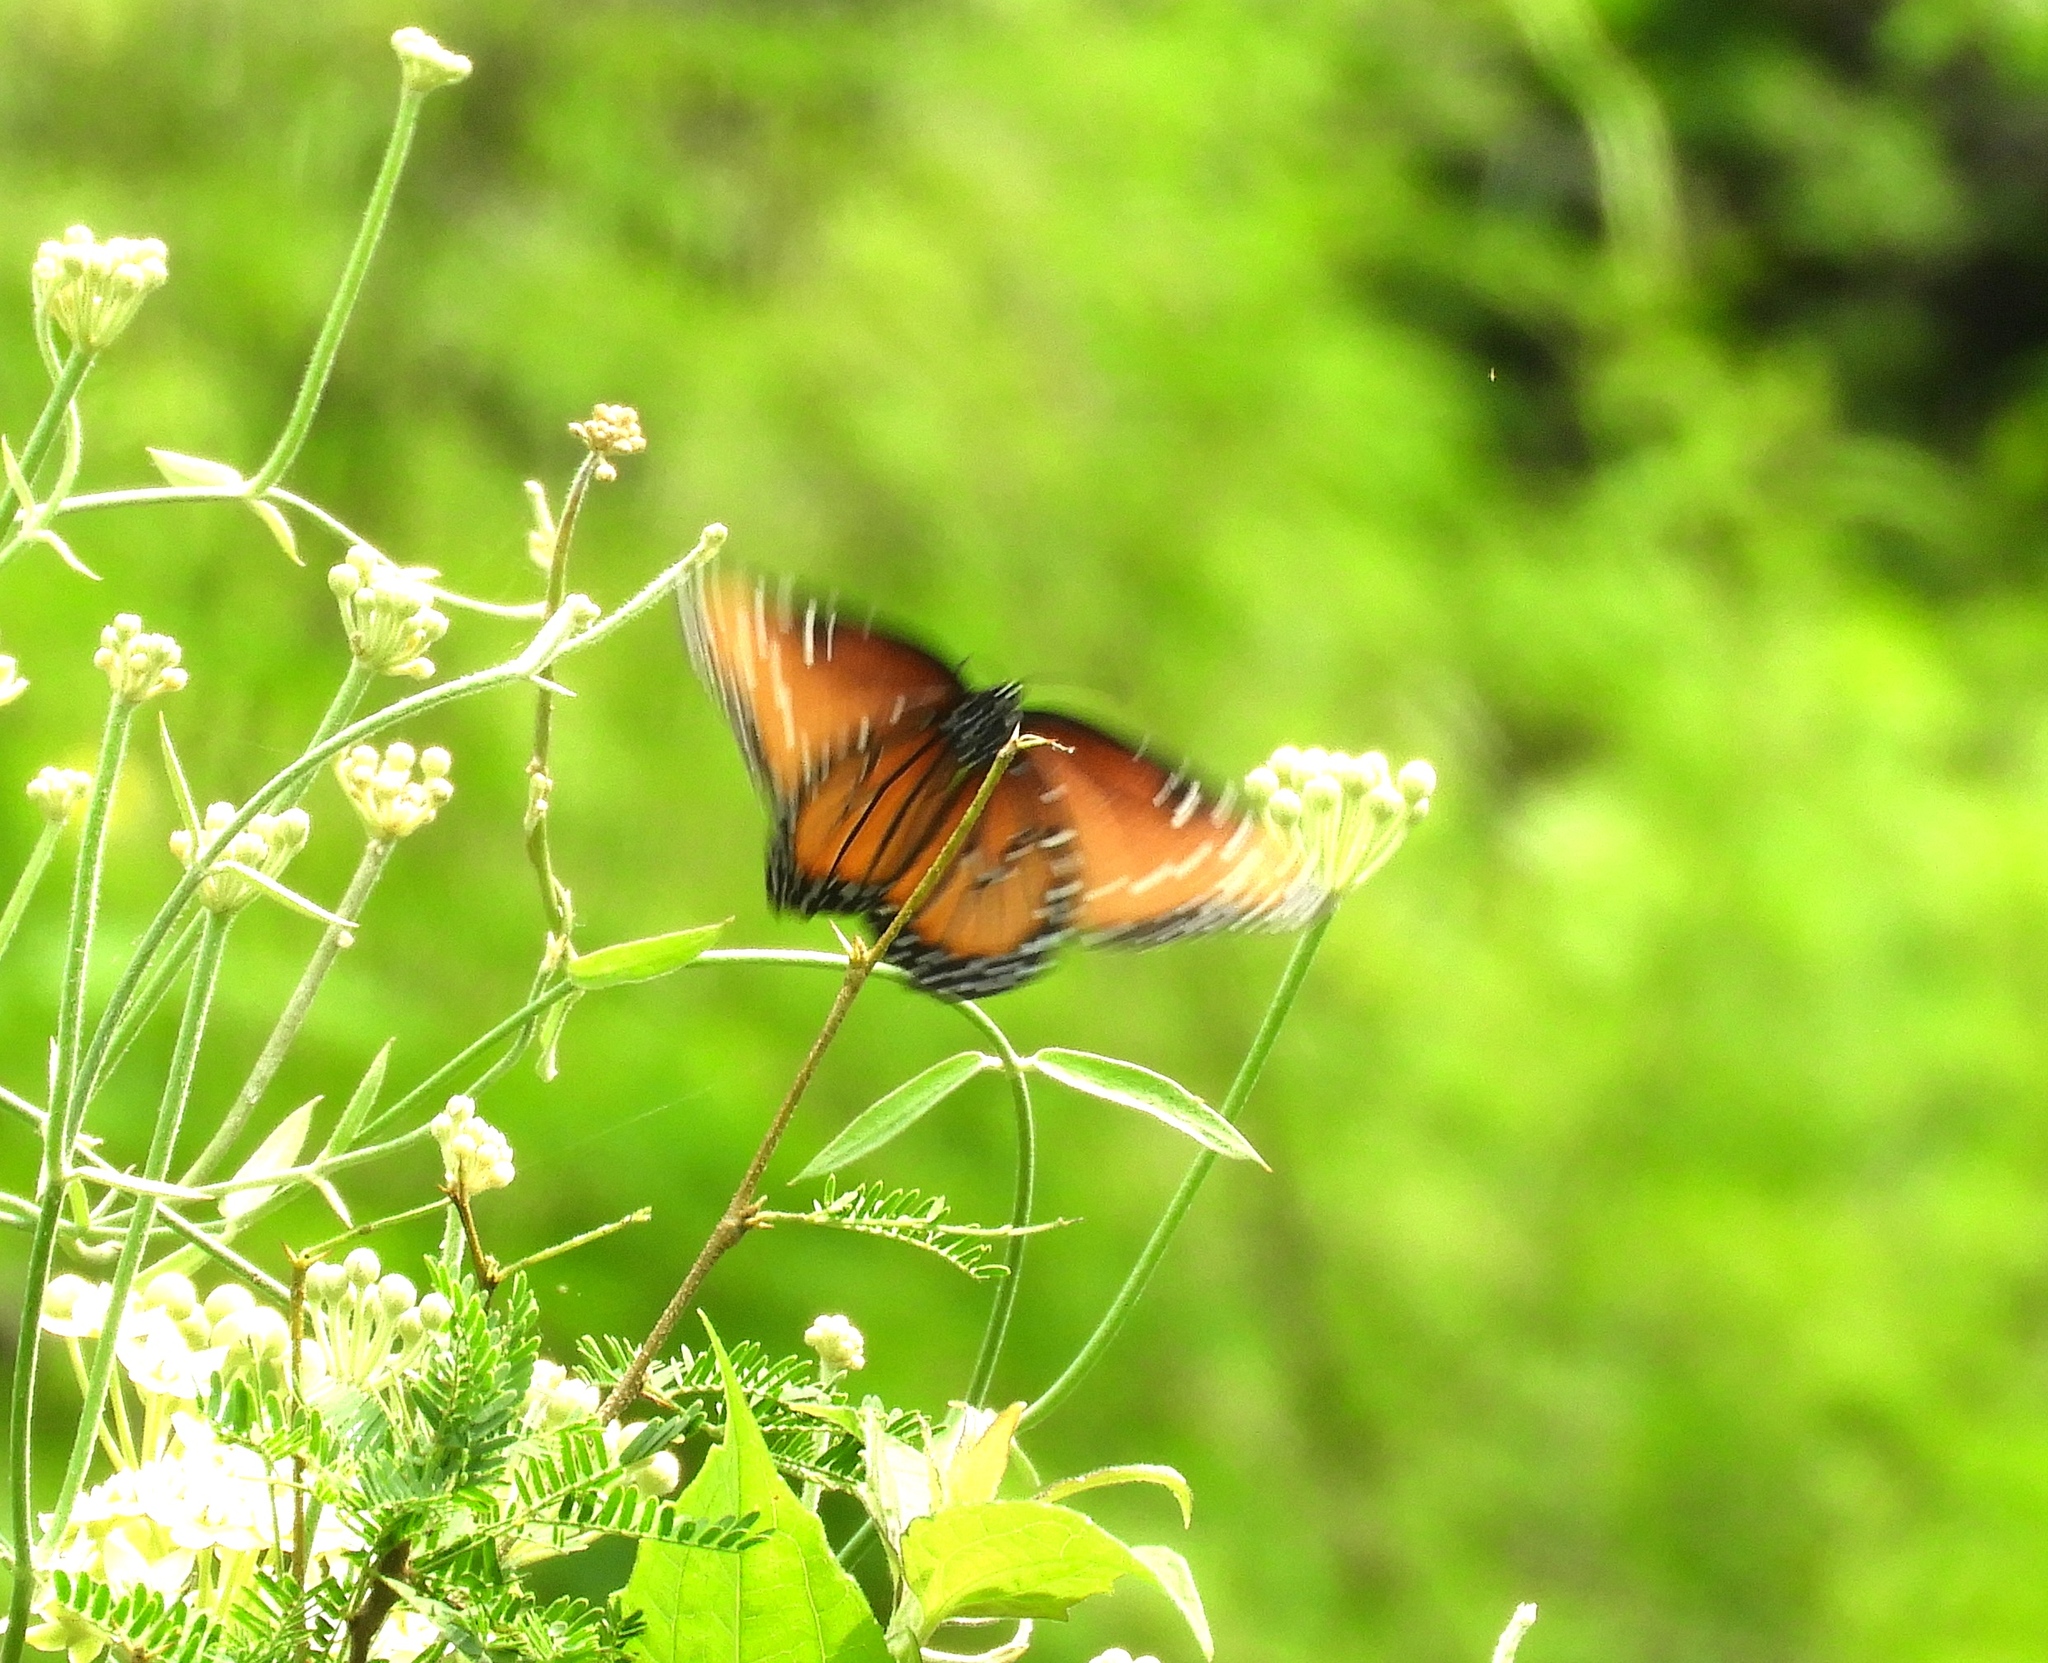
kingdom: Animalia
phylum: Arthropoda
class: Insecta
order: Lepidoptera
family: Nymphalidae
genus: Danaus
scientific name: Danaus gilippus
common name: Queen
